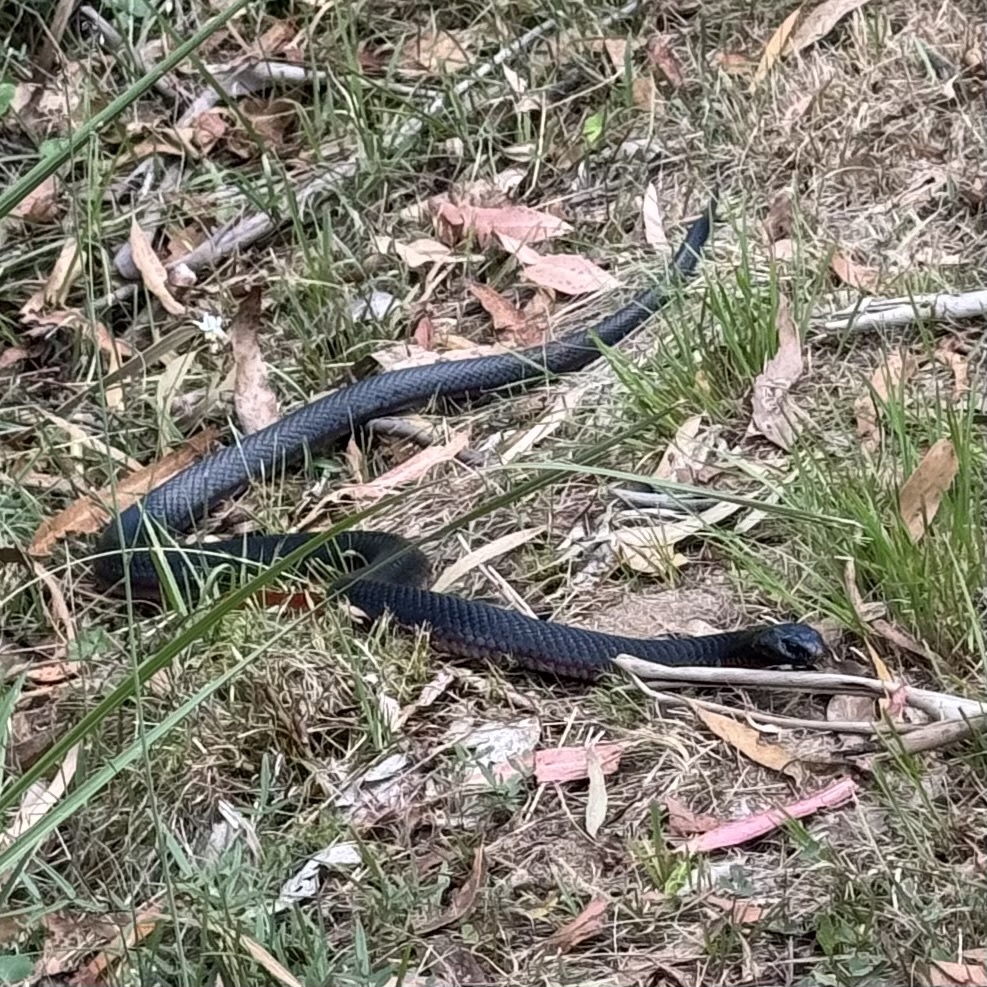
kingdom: Animalia
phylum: Chordata
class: Squamata
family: Elapidae
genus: Pseudechis
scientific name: Pseudechis porphyriacus
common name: Australian black snake
